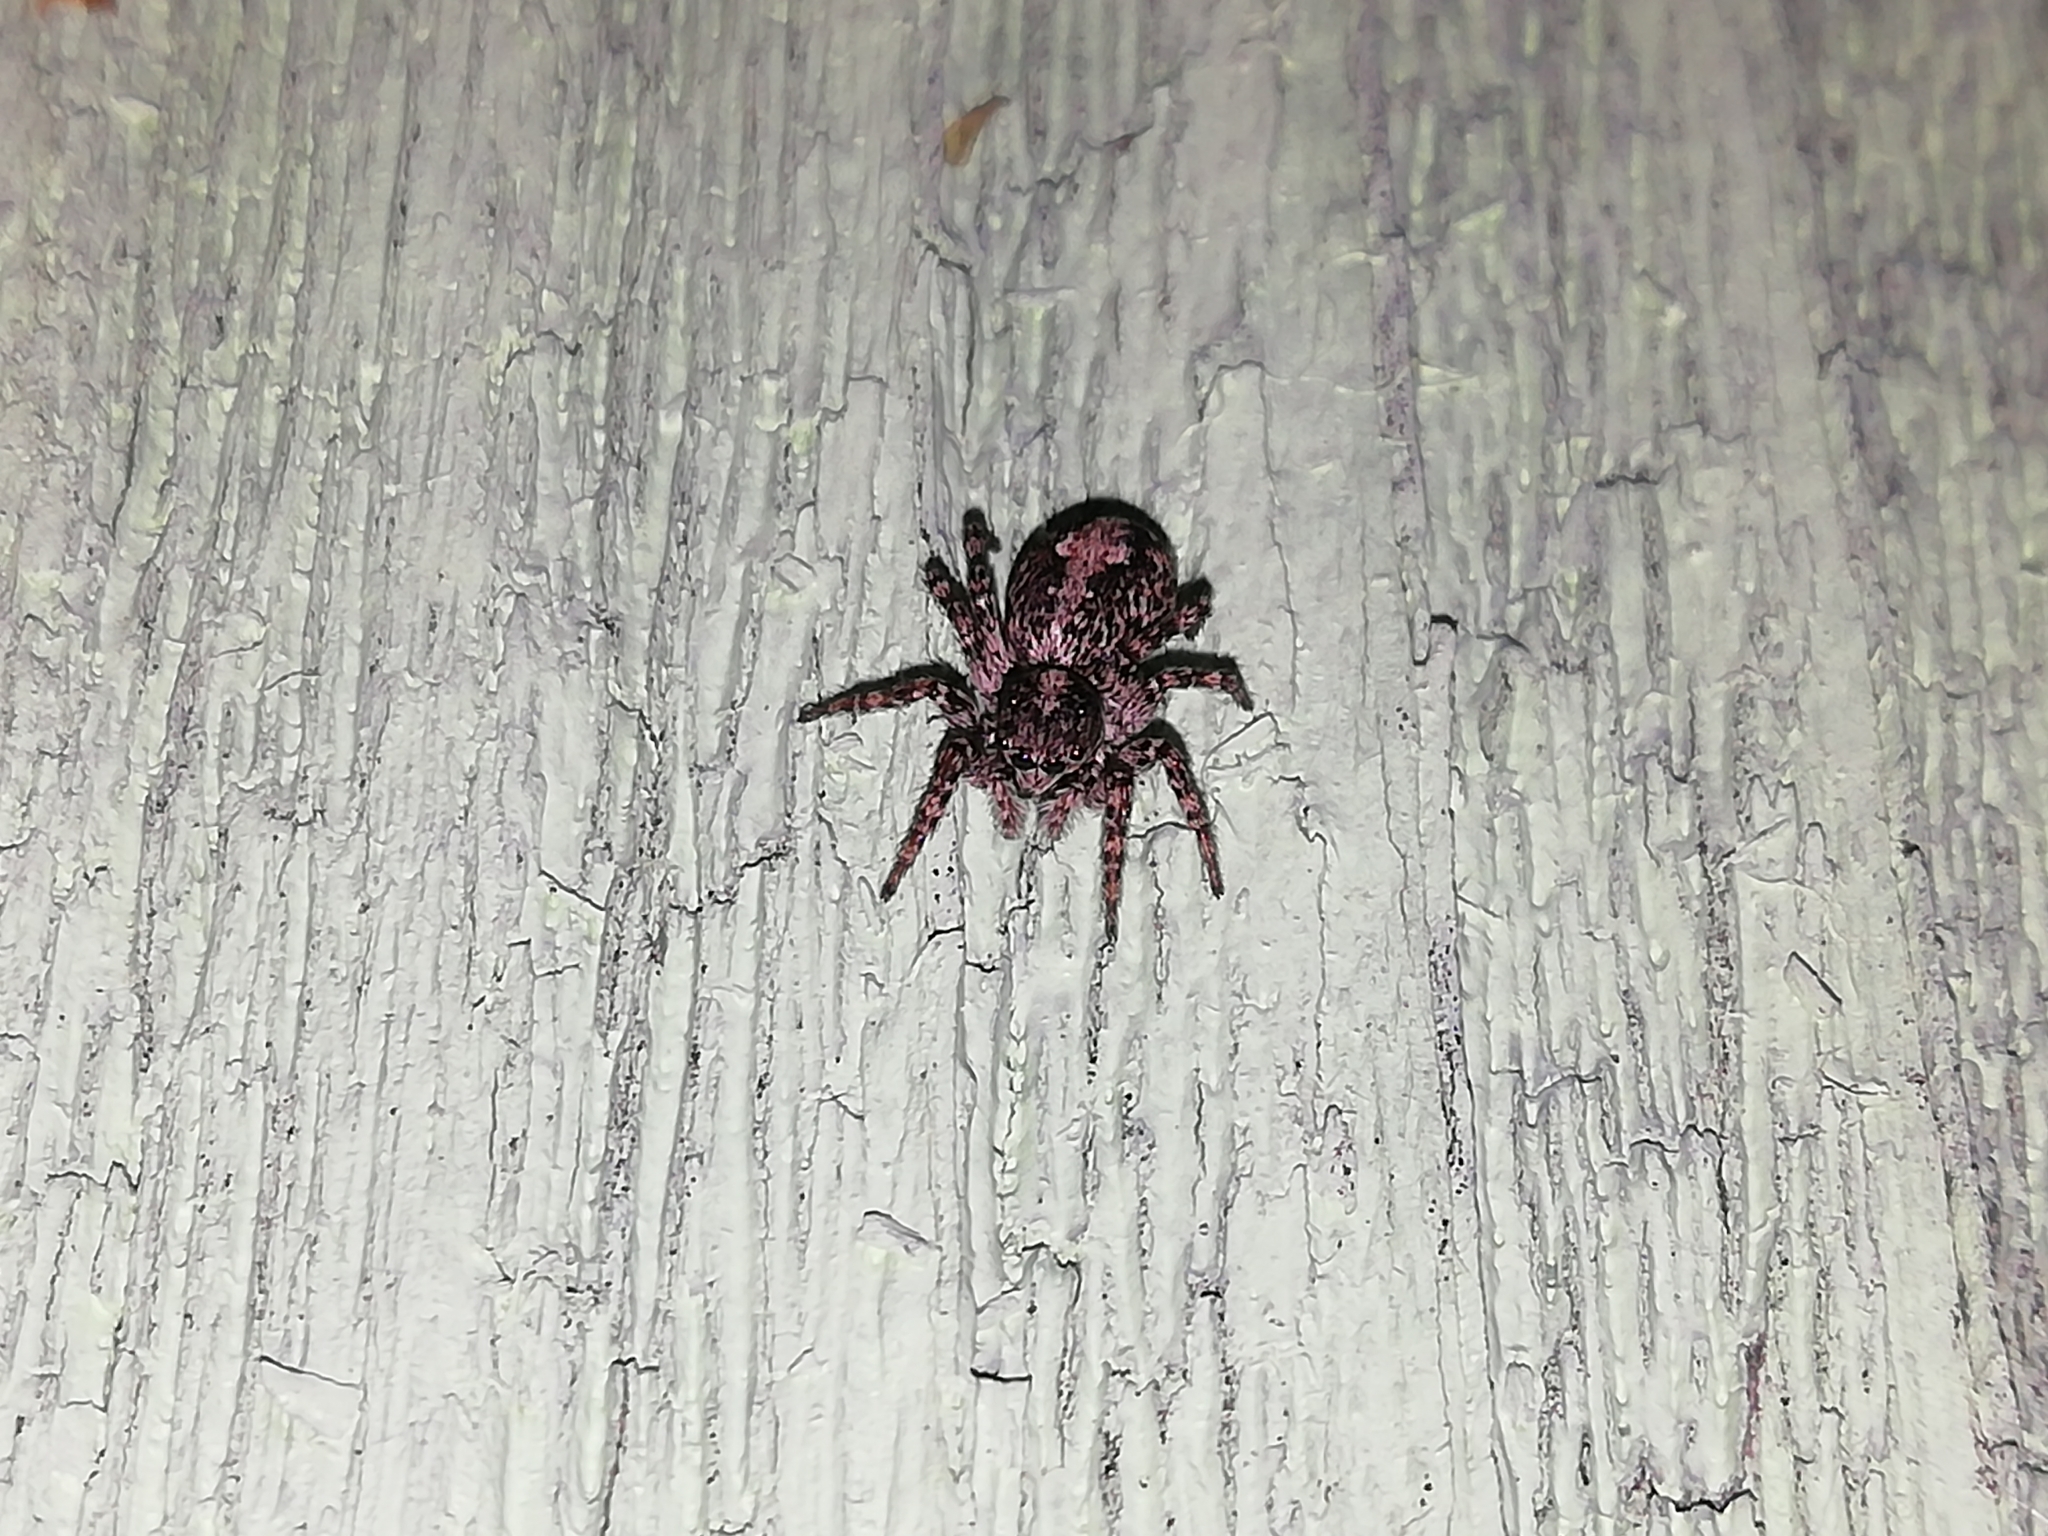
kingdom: Animalia
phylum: Arthropoda
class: Arachnida
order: Araneae
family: Salticidae
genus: Attulus
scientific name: Attulus terebratus
